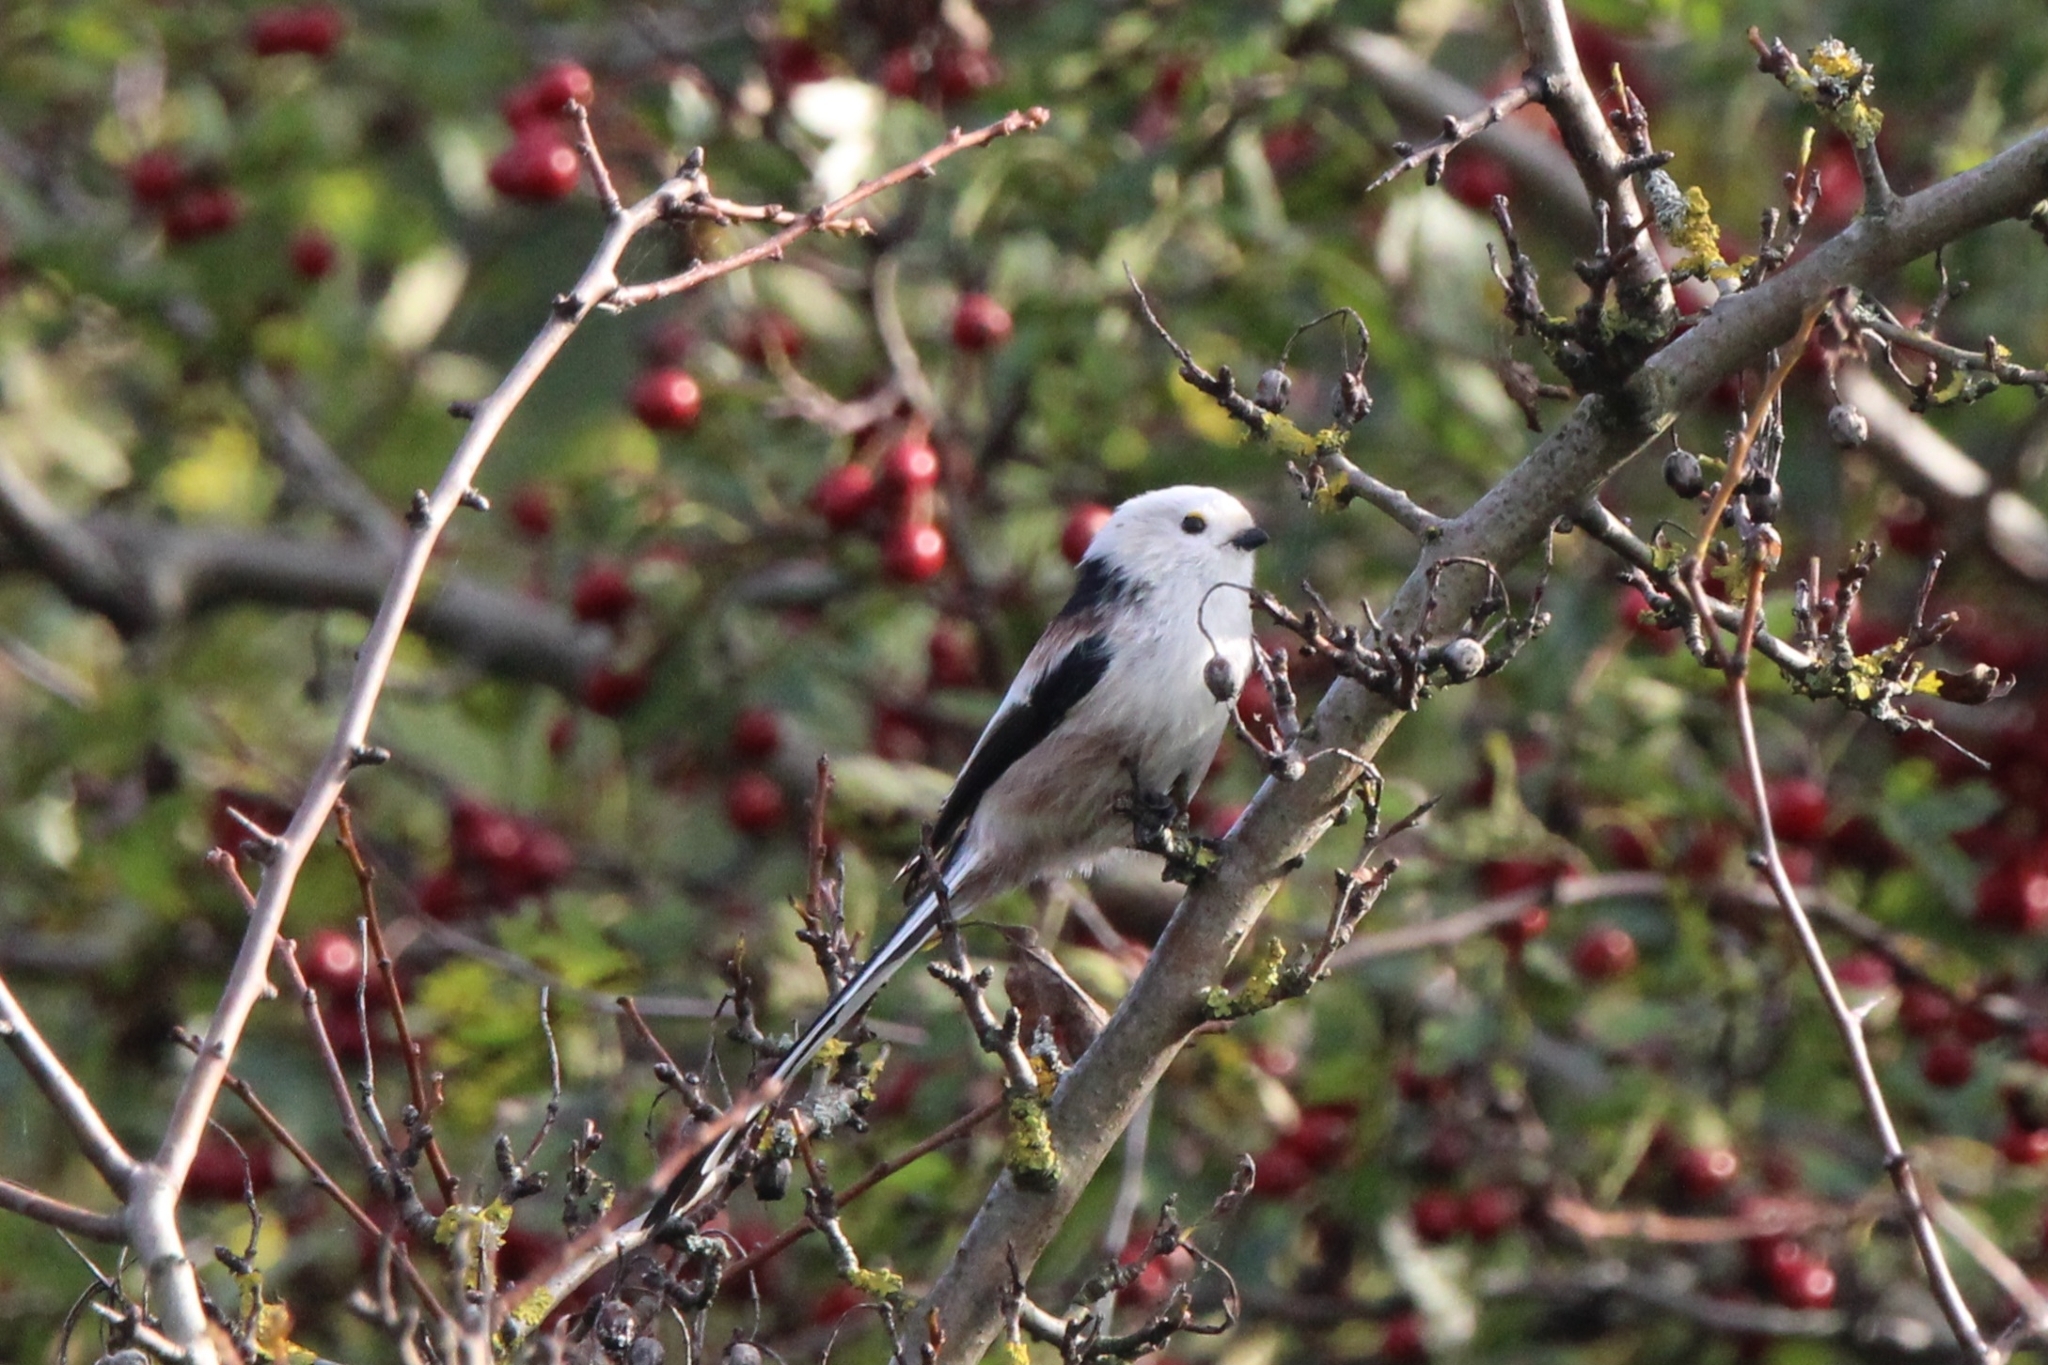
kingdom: Animalia
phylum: Chordata
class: Aves
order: Passeriformes
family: Aegithalidae
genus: Aegithalos
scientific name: Aegithalos caudatus
